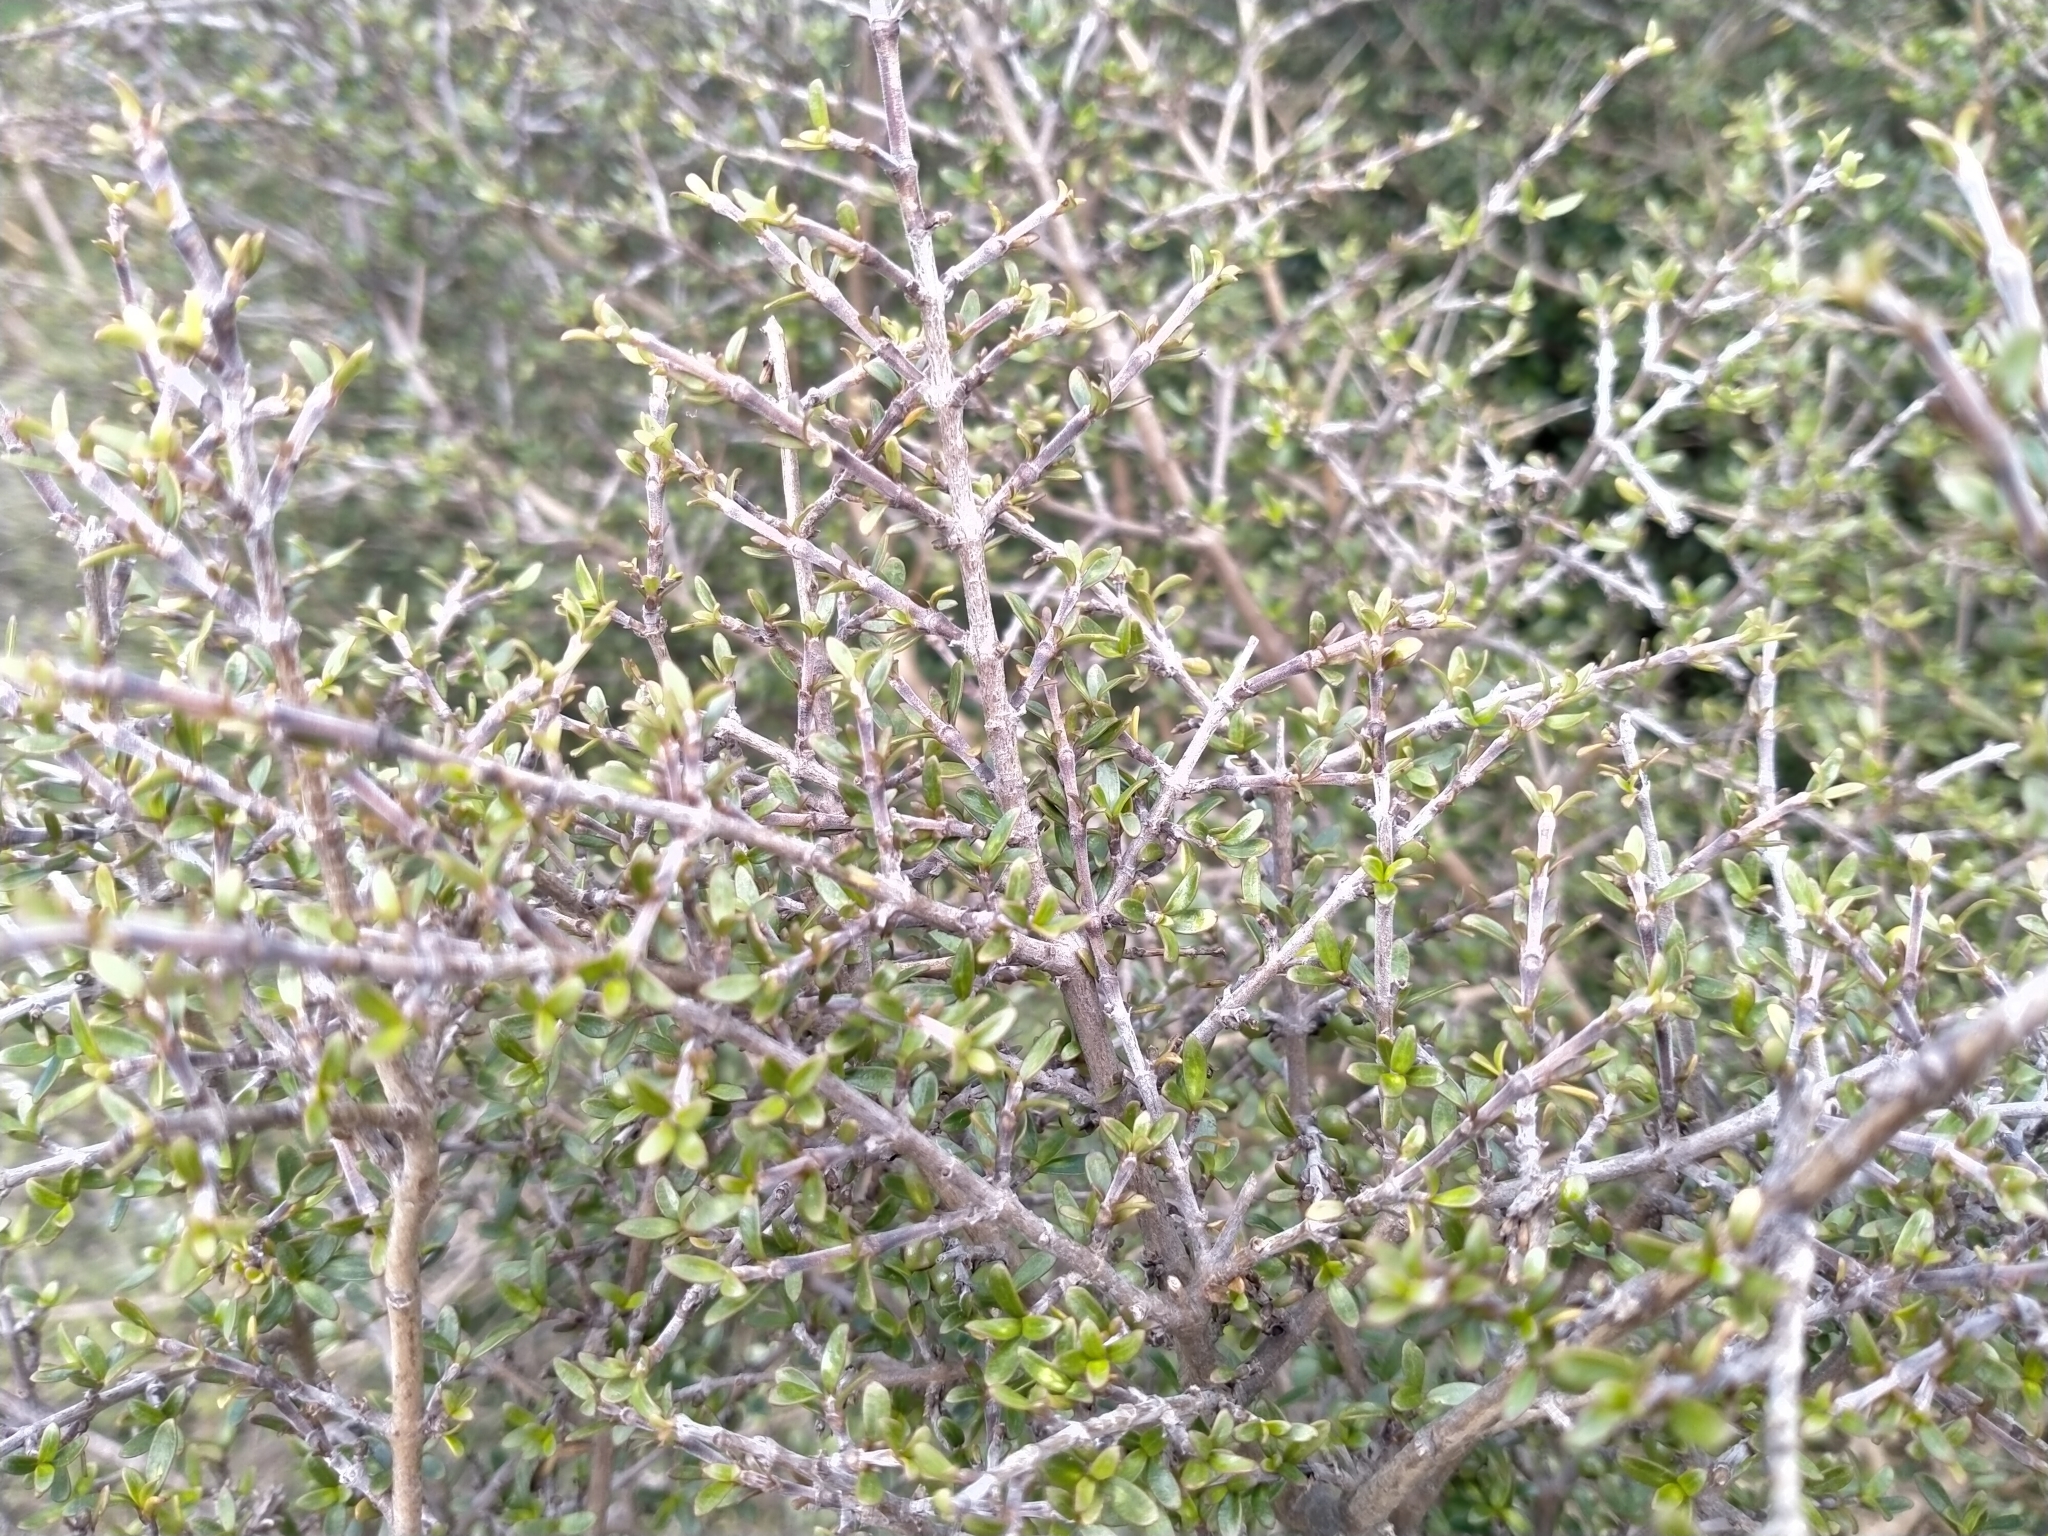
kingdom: Plantae
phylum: Tracheophyta
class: Magnoliopsida
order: Gentianales
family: Rubiaceae
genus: Coprosma
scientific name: Coprosma dumosa
